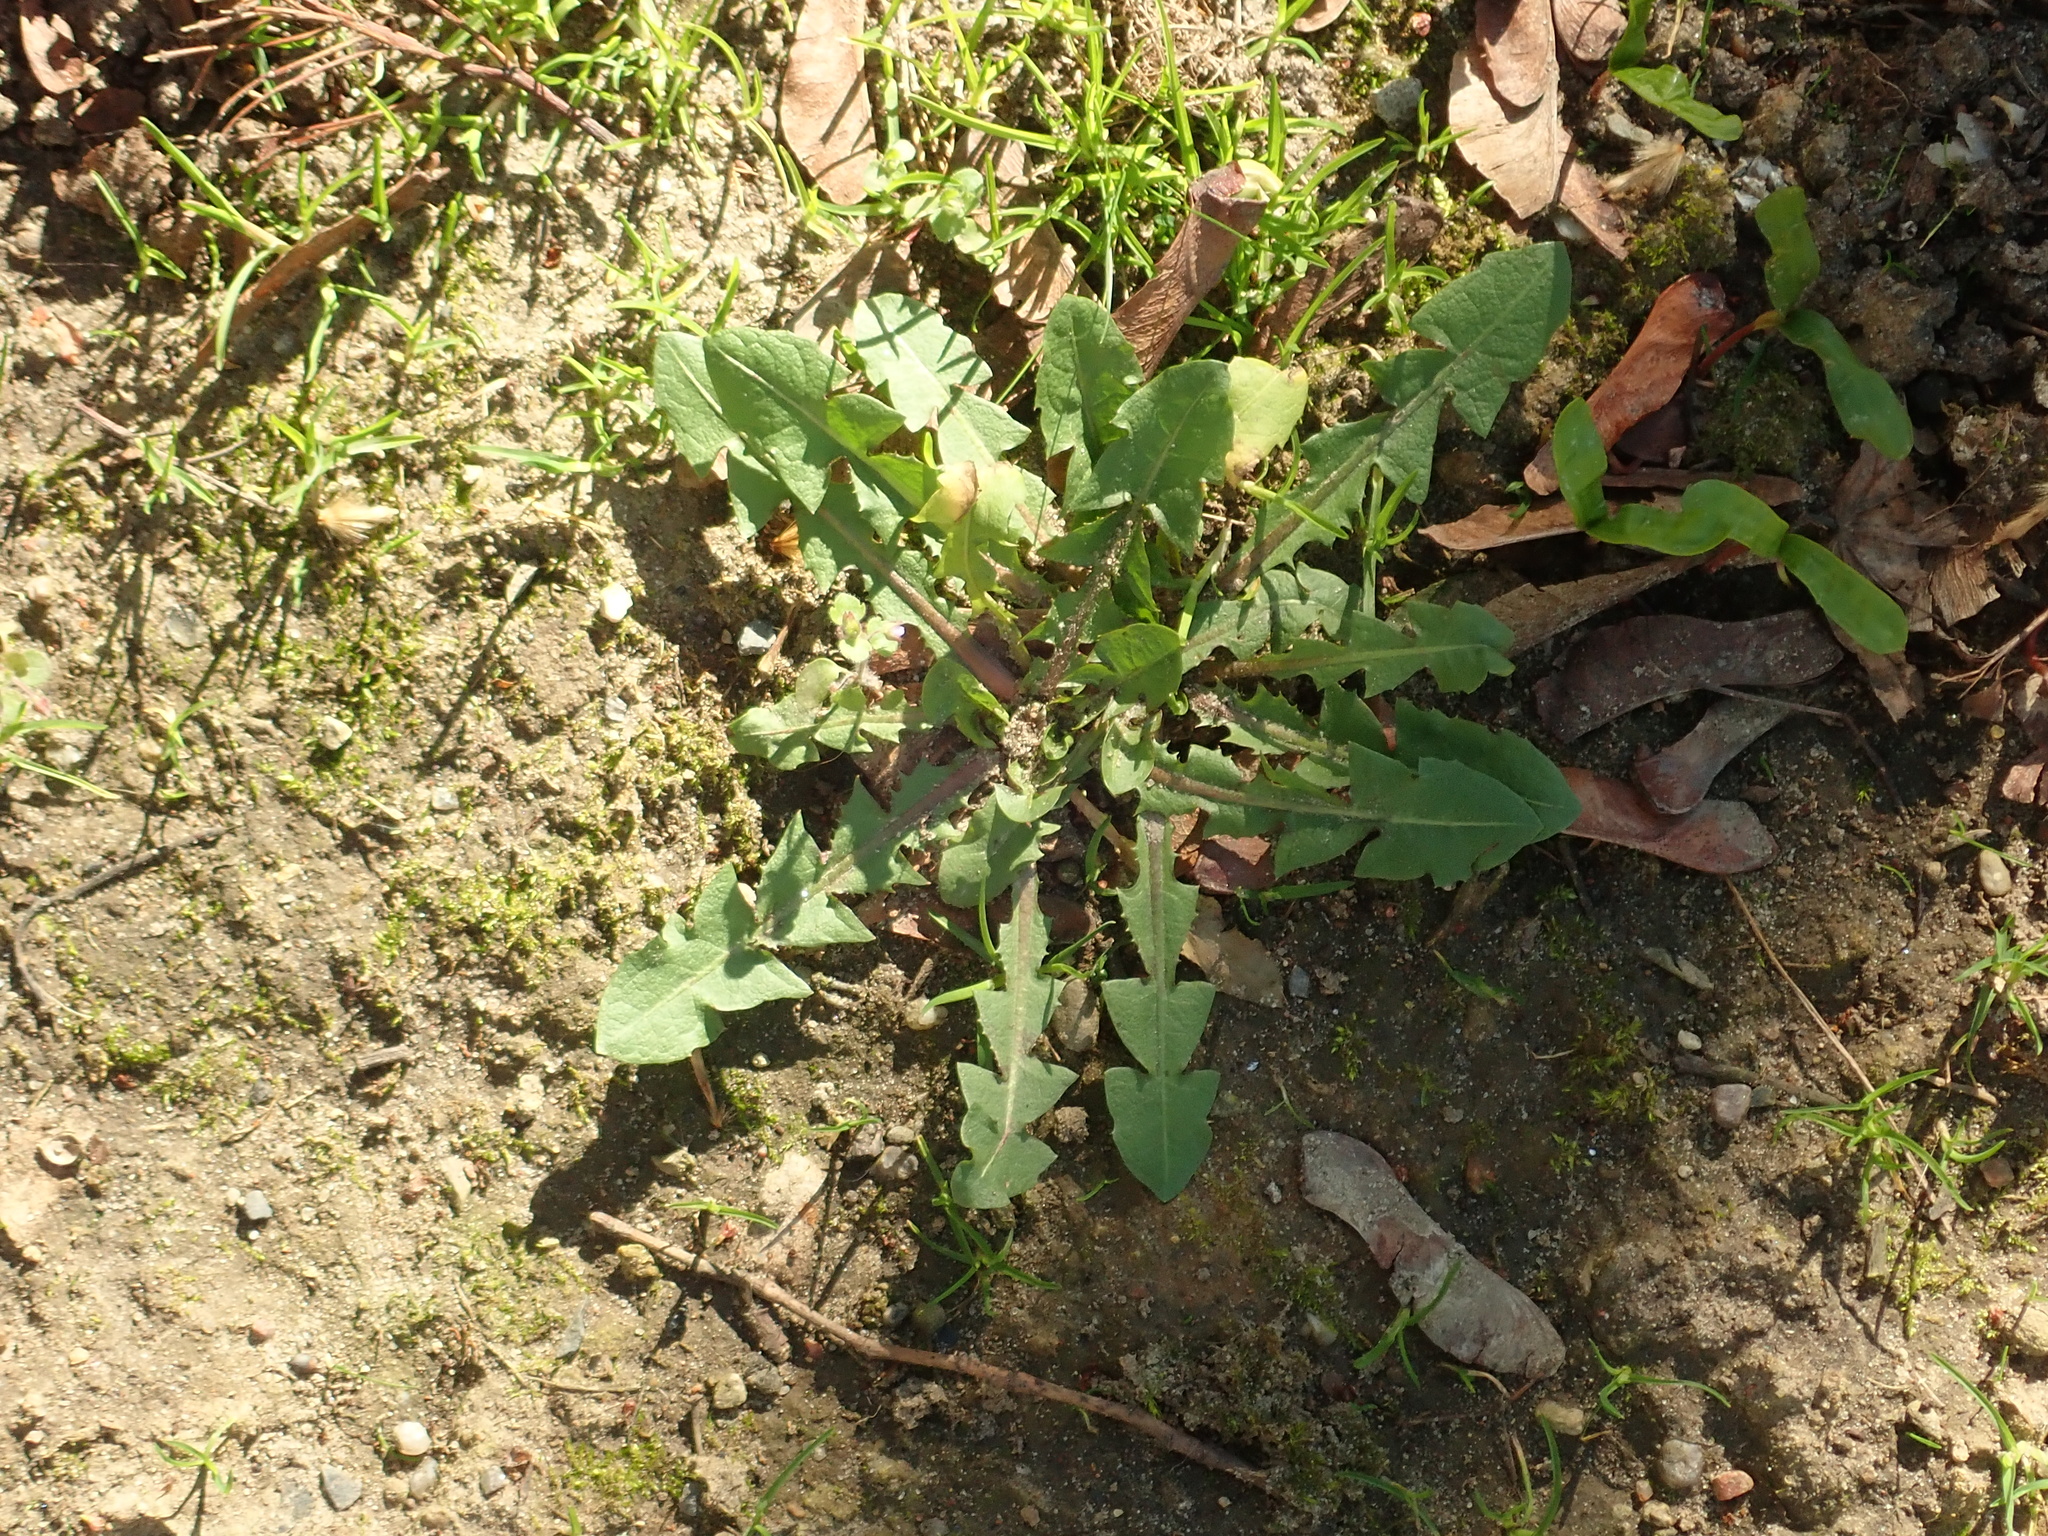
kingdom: Plantae
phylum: Tracheophyta
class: Magnoliopsida
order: Asterales
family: Asteraceae
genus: Taraxacum
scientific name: Taraxacum officinale
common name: Common dandelion
